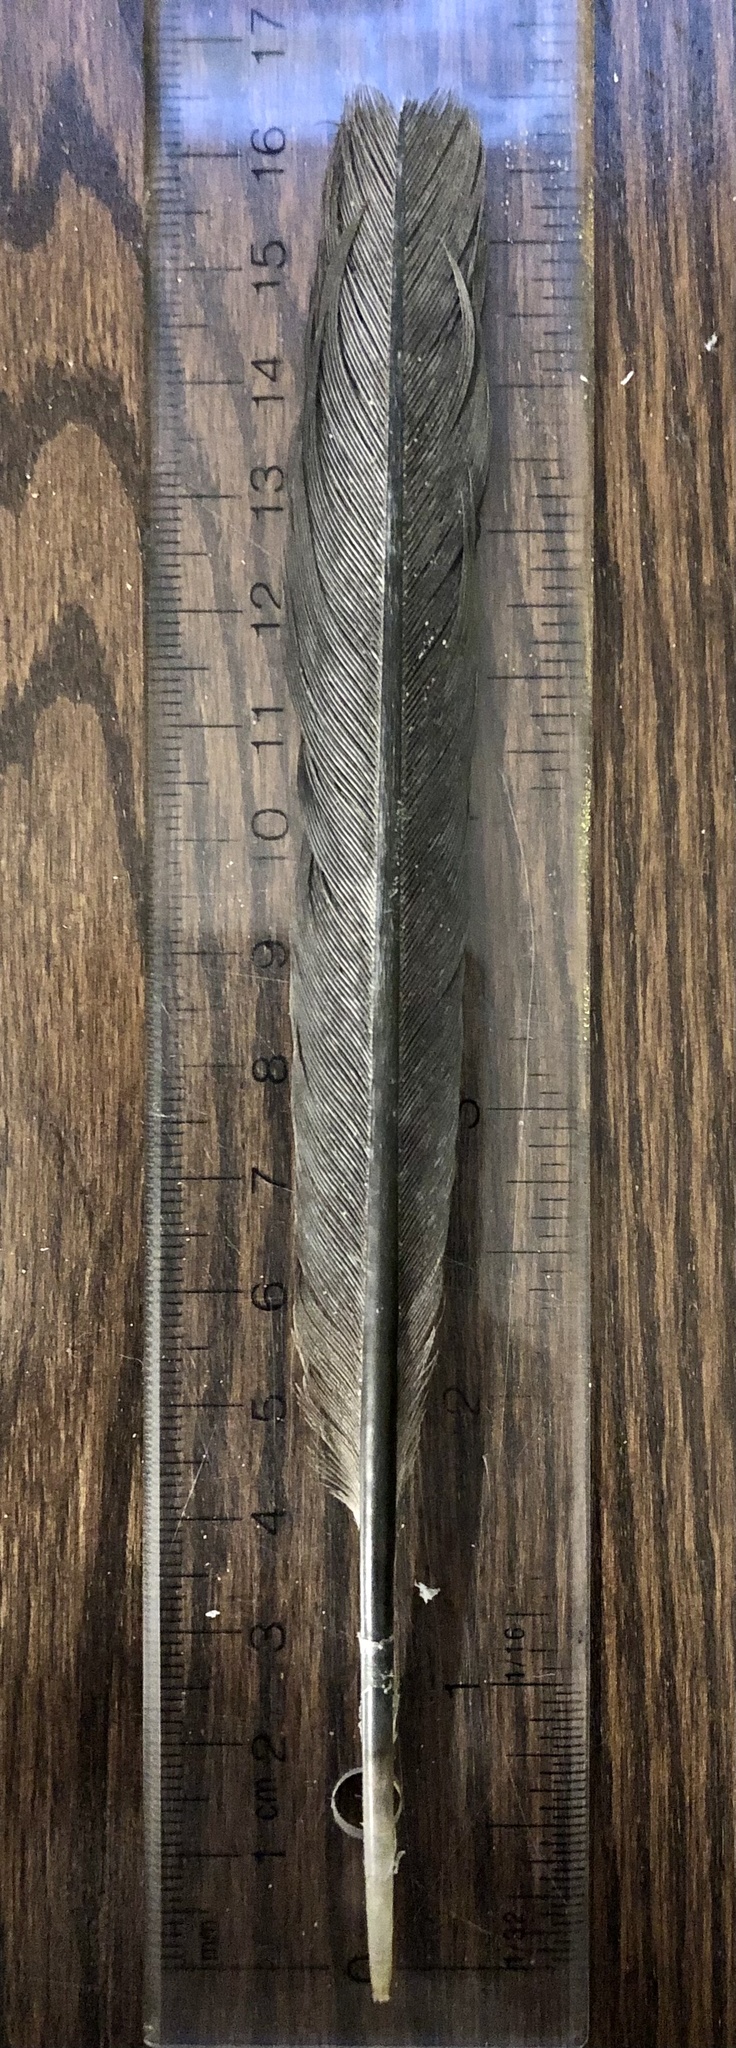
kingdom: Animalia
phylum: Chordata
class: Aves
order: Suliformes
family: Phalacrocoracidae
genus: Phalacrocorax
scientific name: Phalacrocorax auritus
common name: Double-crested cormorant
